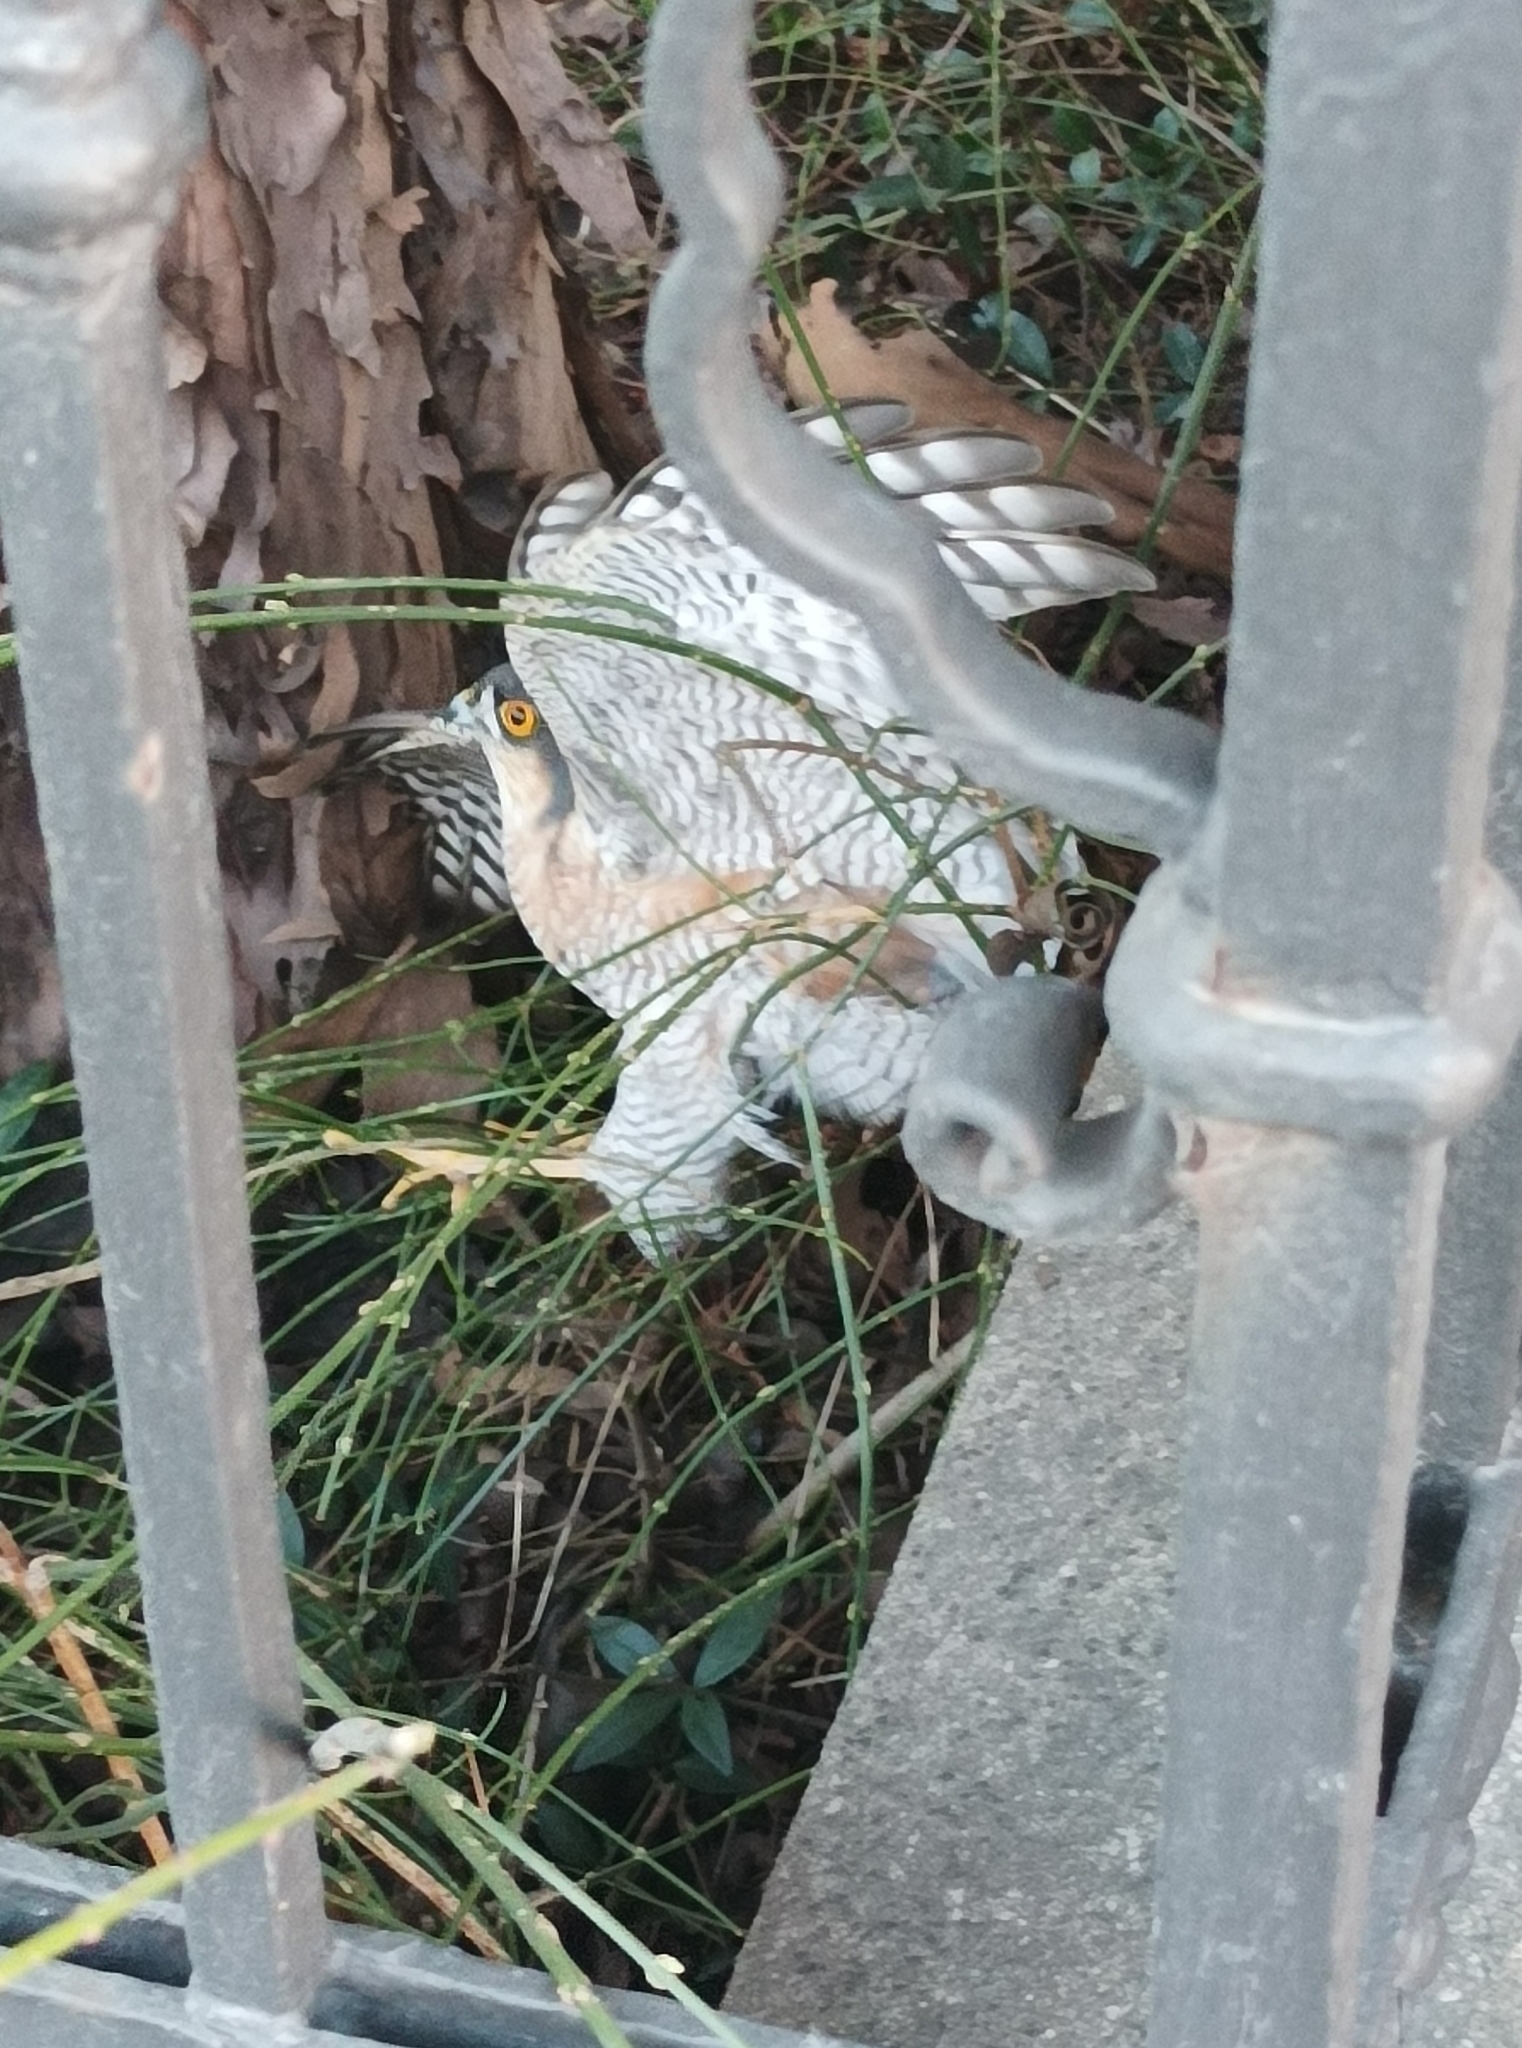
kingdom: Animalia
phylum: Chordata
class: Aves
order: Accipitriformes
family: Accipitridae
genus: Accipiter
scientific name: Accipiter nisus
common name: Eurasian sparrowhawk
